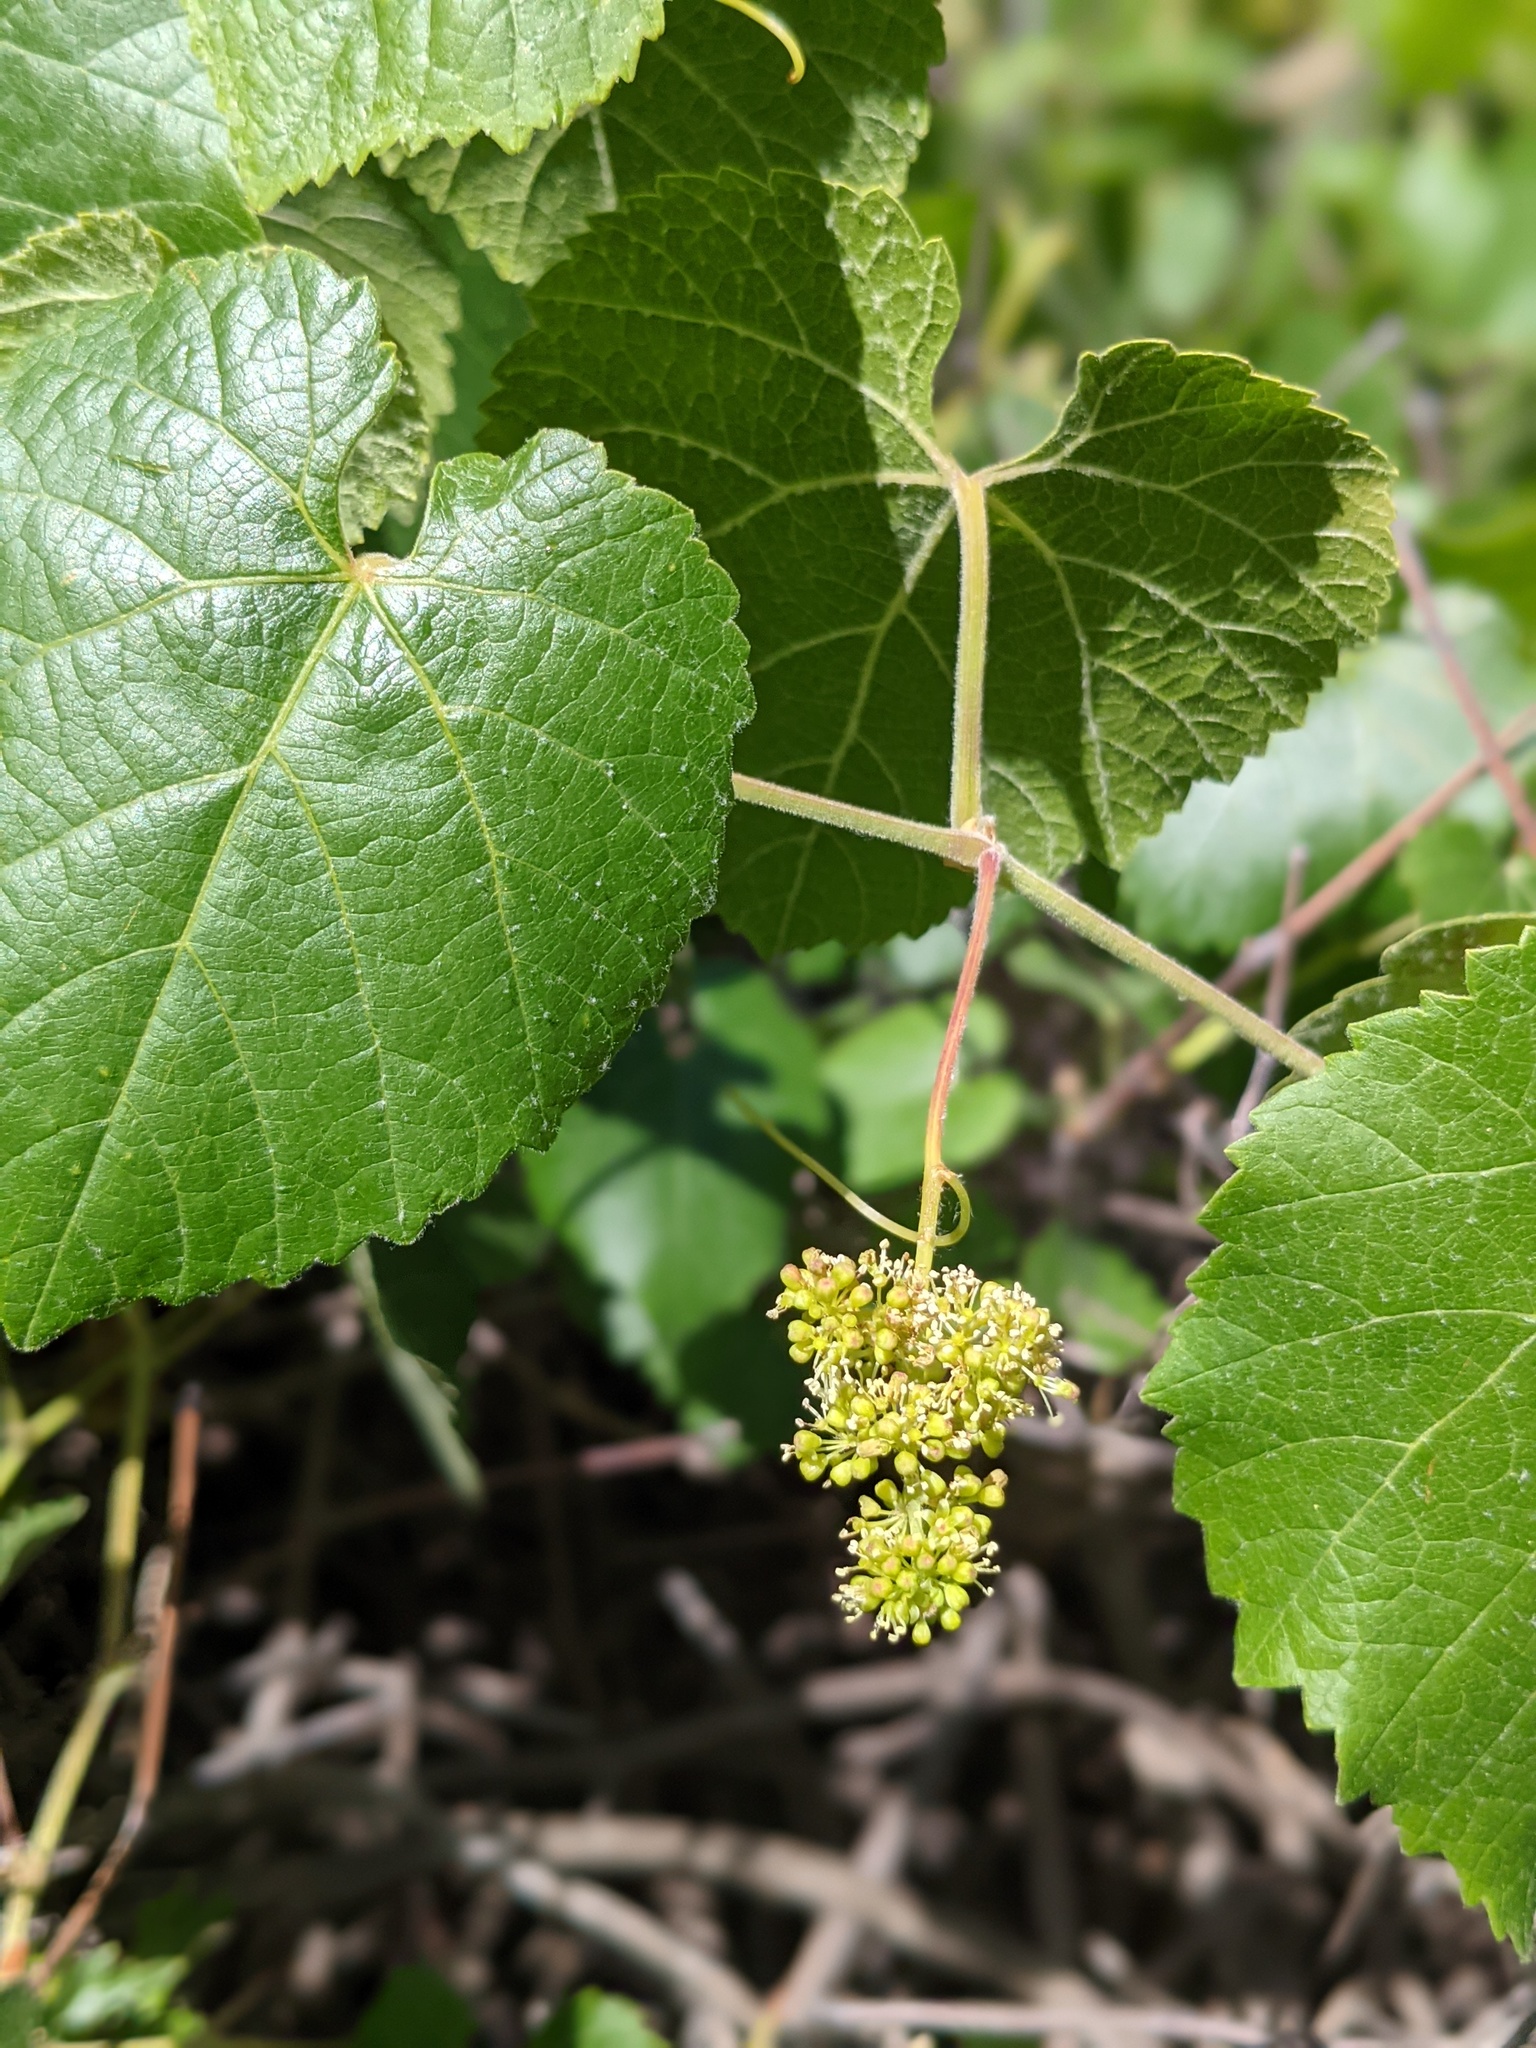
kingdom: Plantae
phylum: Tracheophyta
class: Magnoliopsida
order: Vitales
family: Vitaceae
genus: Vitis
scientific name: Vitis californica
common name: California wild grape
